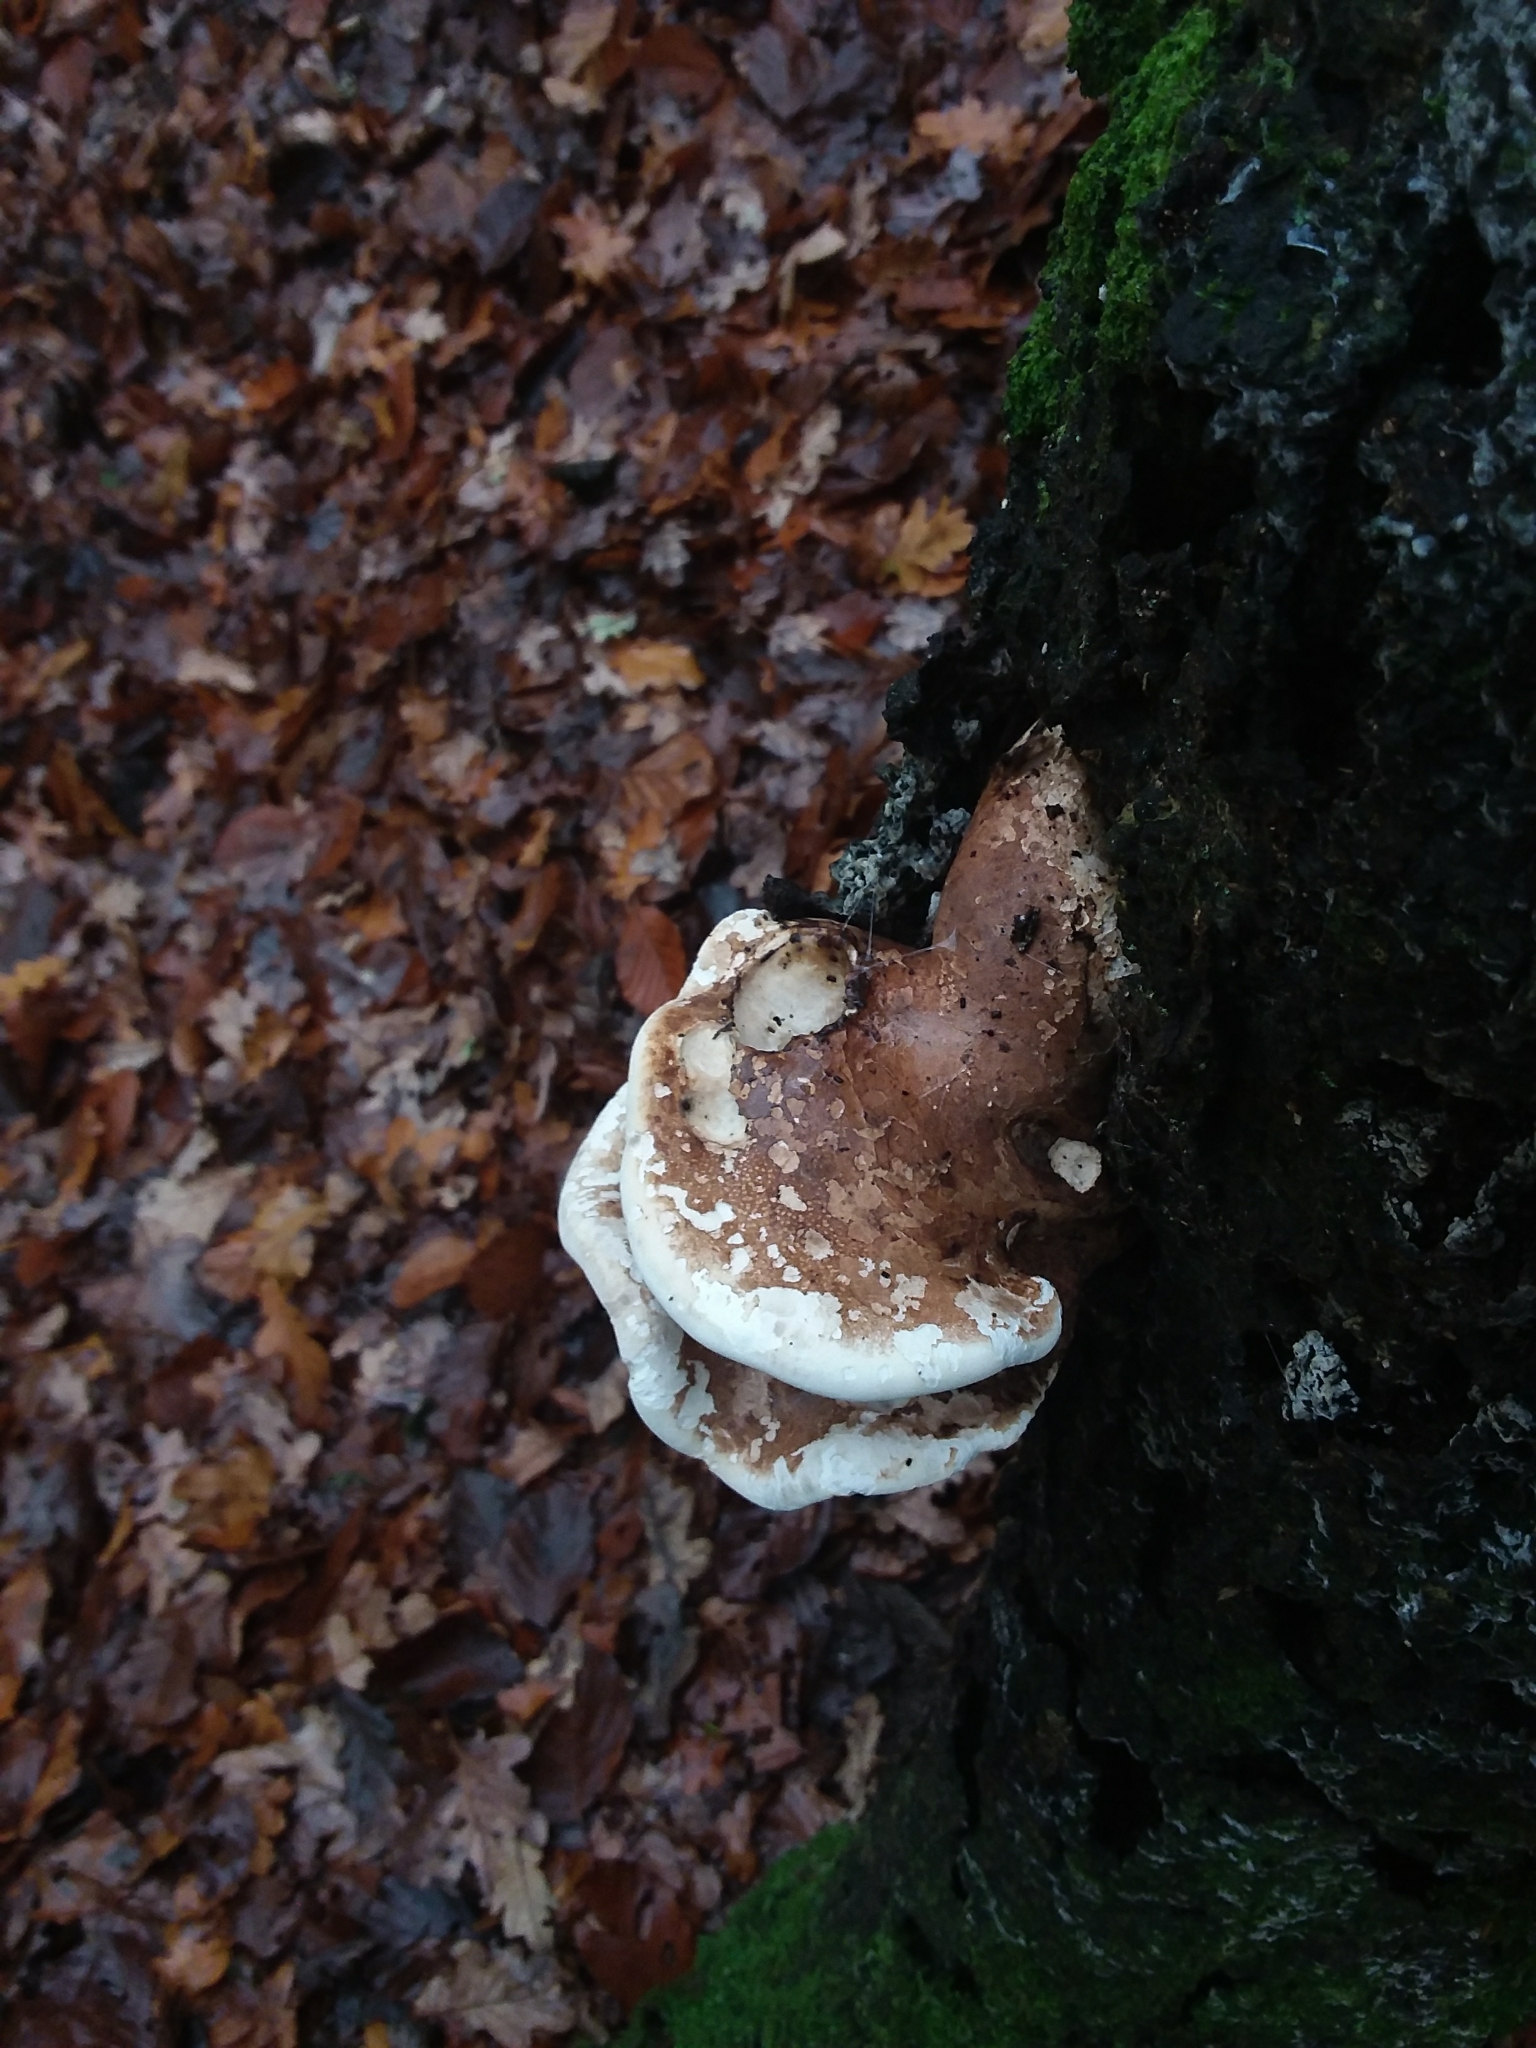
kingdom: Fungi
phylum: Basidiomycota
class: Agaricomycetes
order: Polyporales
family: Fomitopsidaceae
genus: Fomitopsis
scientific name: Fomitopsis betulina
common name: Birch polypore
